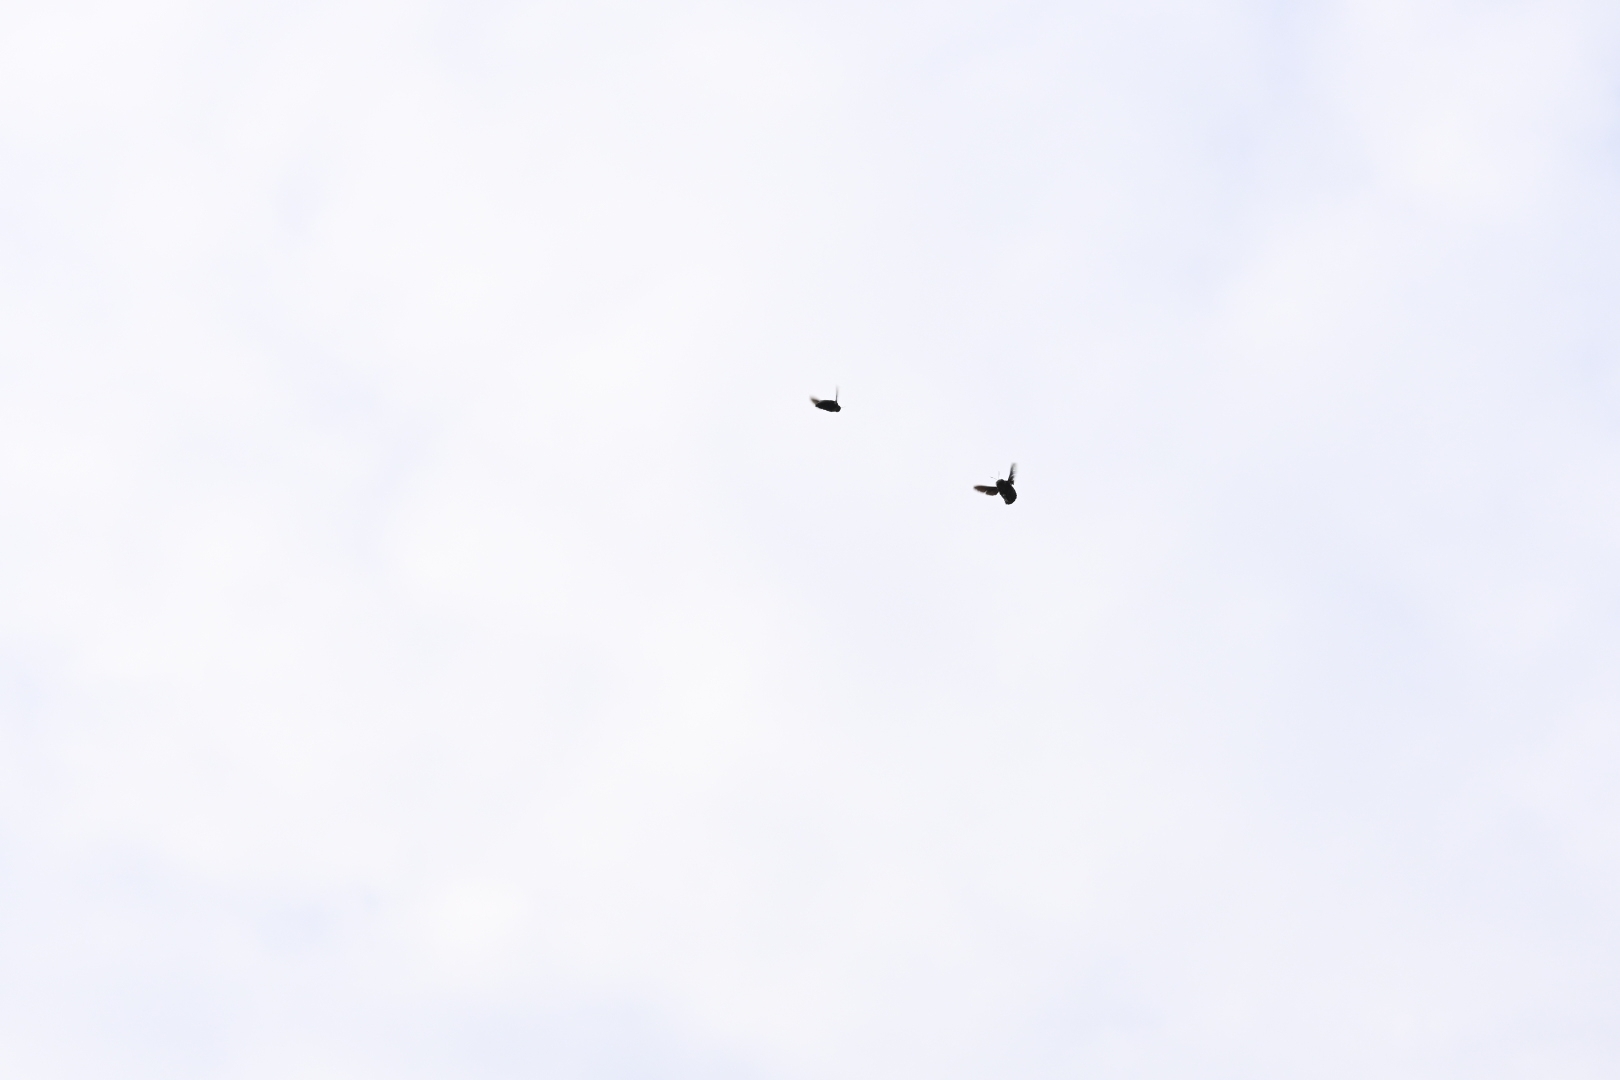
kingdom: Animalia
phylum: Arthropoda
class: Insecta
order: Hymenoptera
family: Apidae
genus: Xylocopa
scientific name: Xylocopa tenuiscapa
